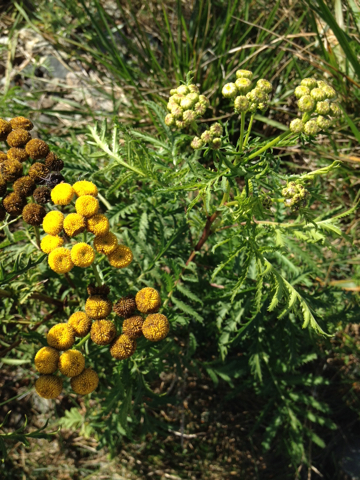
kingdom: Plantae
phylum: Tracheophyta
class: Magnoliopsida
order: Asterales
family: Asteraceae
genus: Tanacetum
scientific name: Tanacetum vulgare
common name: Common tansy
